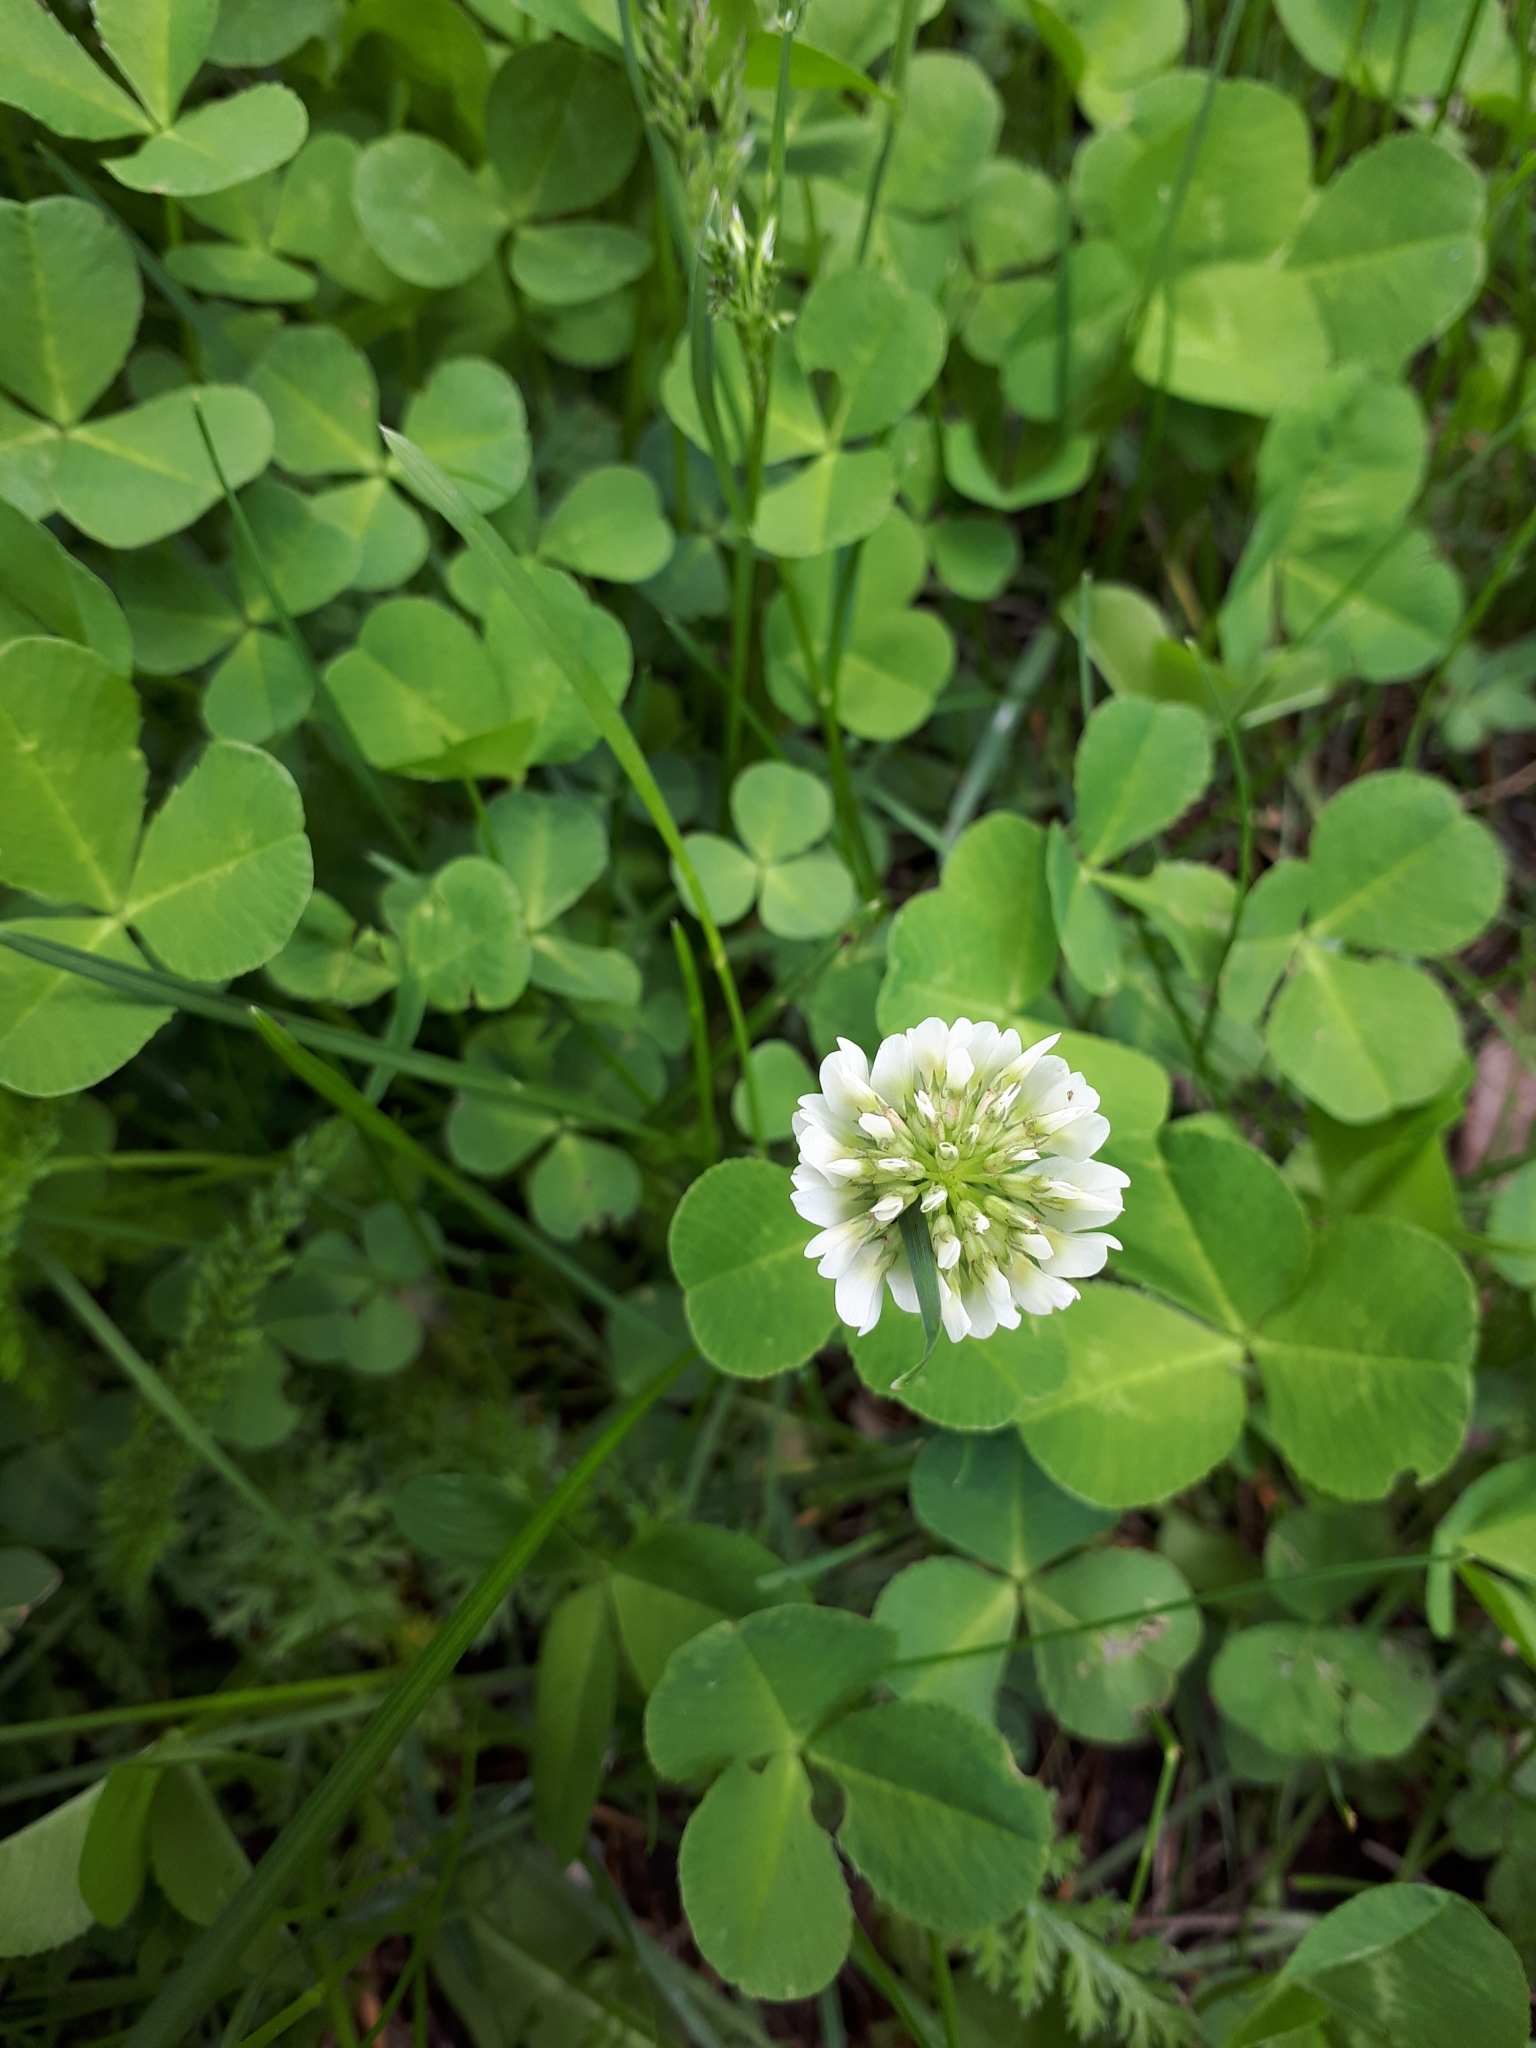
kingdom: Plantae
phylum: Tracheophyta
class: Magnoliopsida
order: Fabales
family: Fabaceae
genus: Trifolium
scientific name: Trifolium repens
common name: White clover
